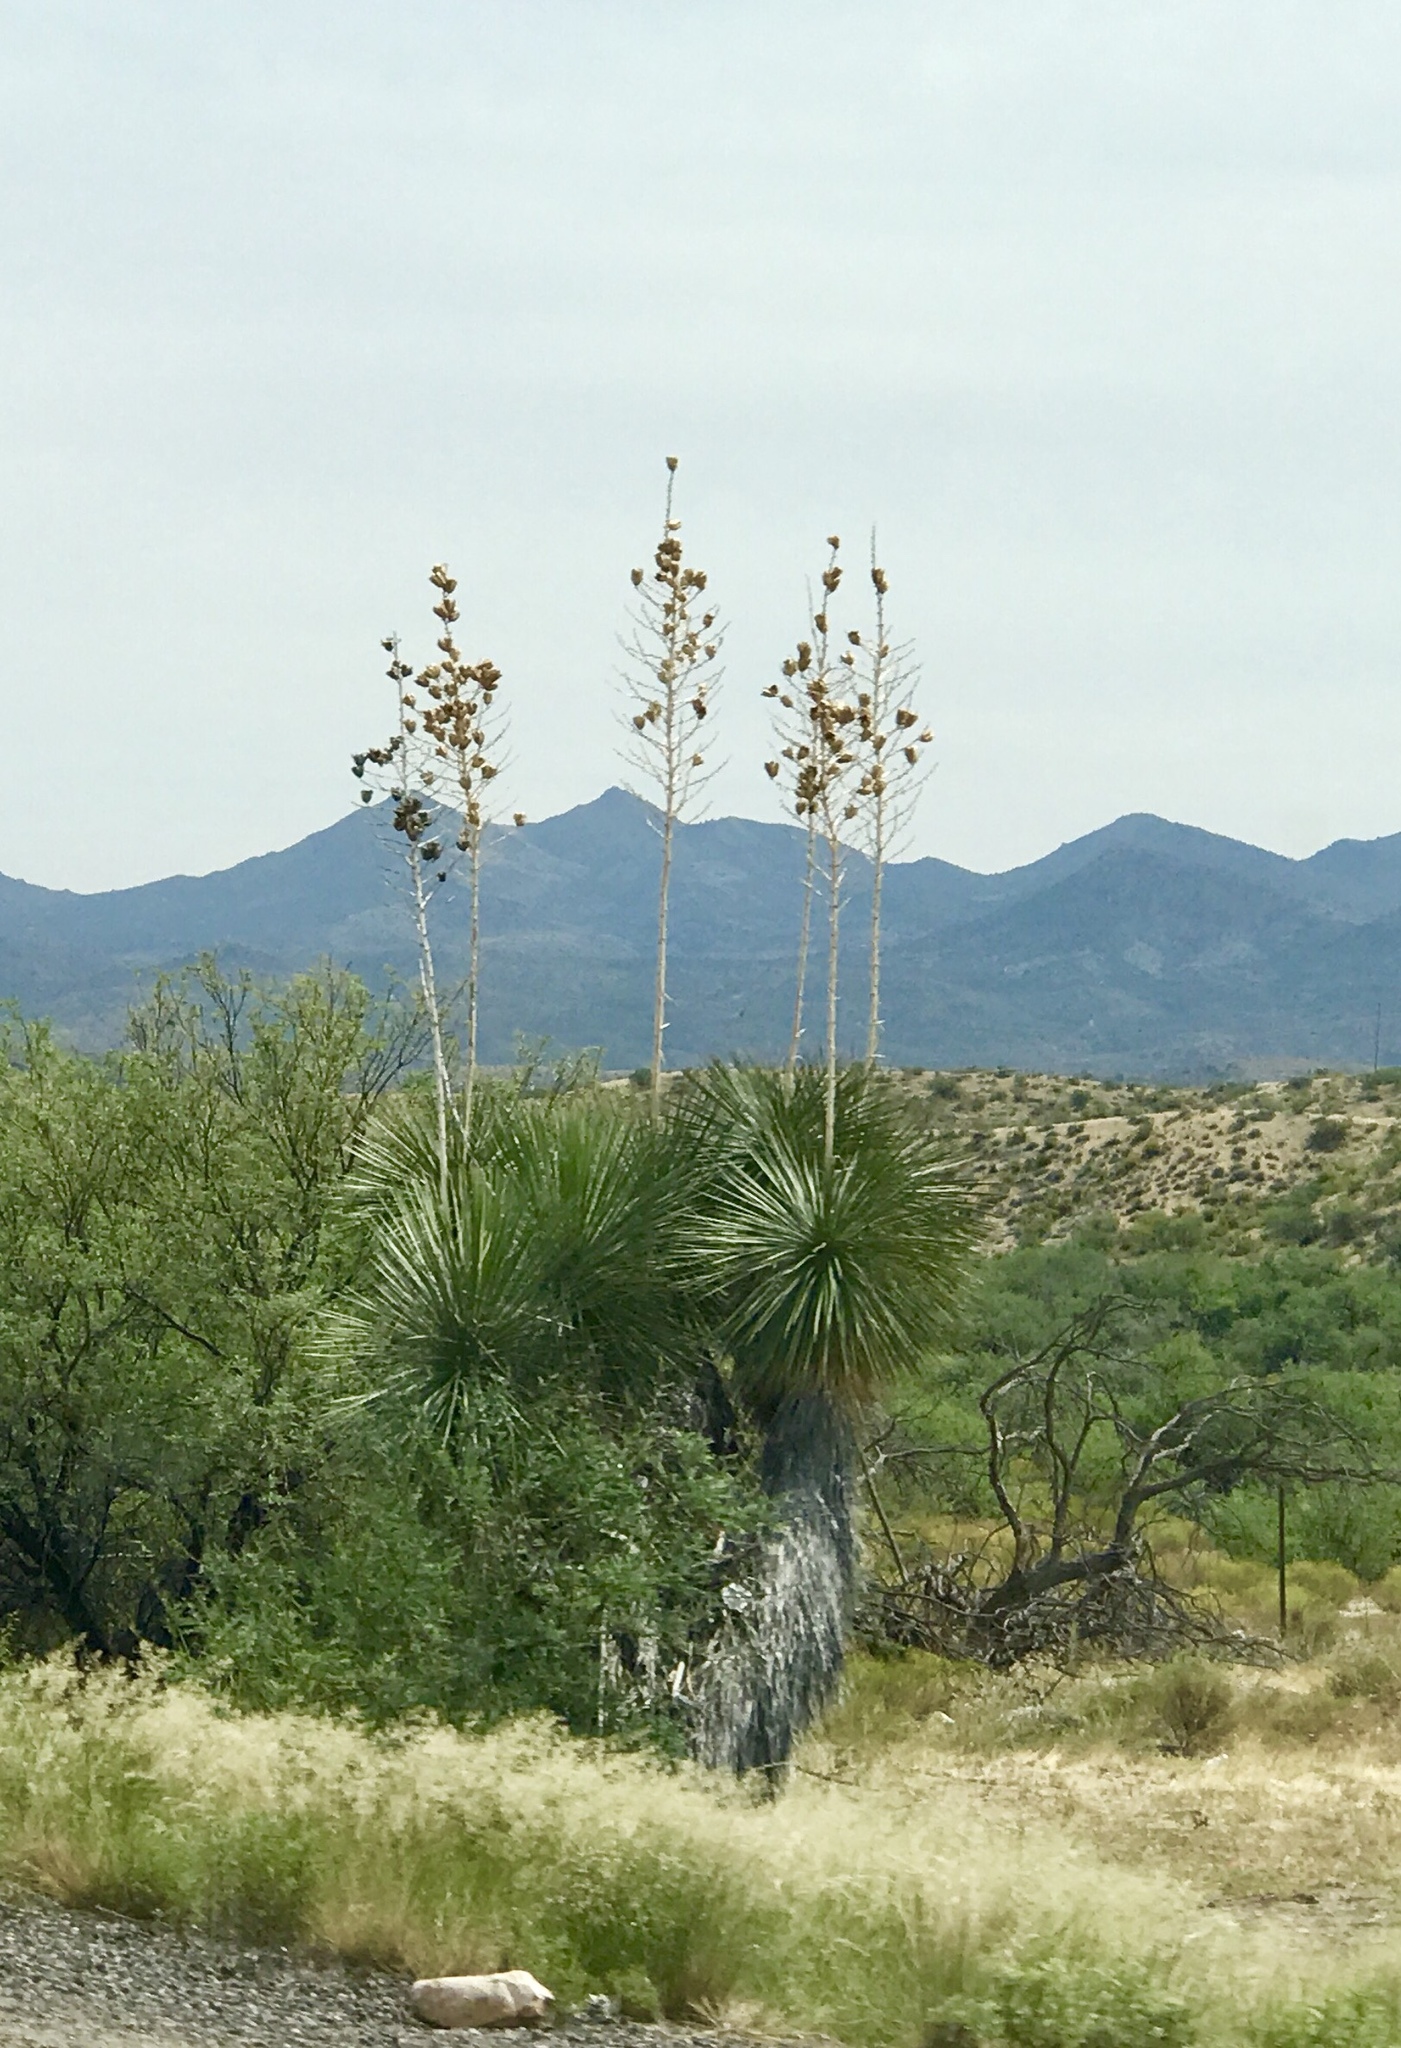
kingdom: Plantae
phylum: Tracheophyta
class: Liliopsida
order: Asparagales
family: Asparagaceae
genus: Yucca
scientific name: Yucca elata
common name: Palmella
